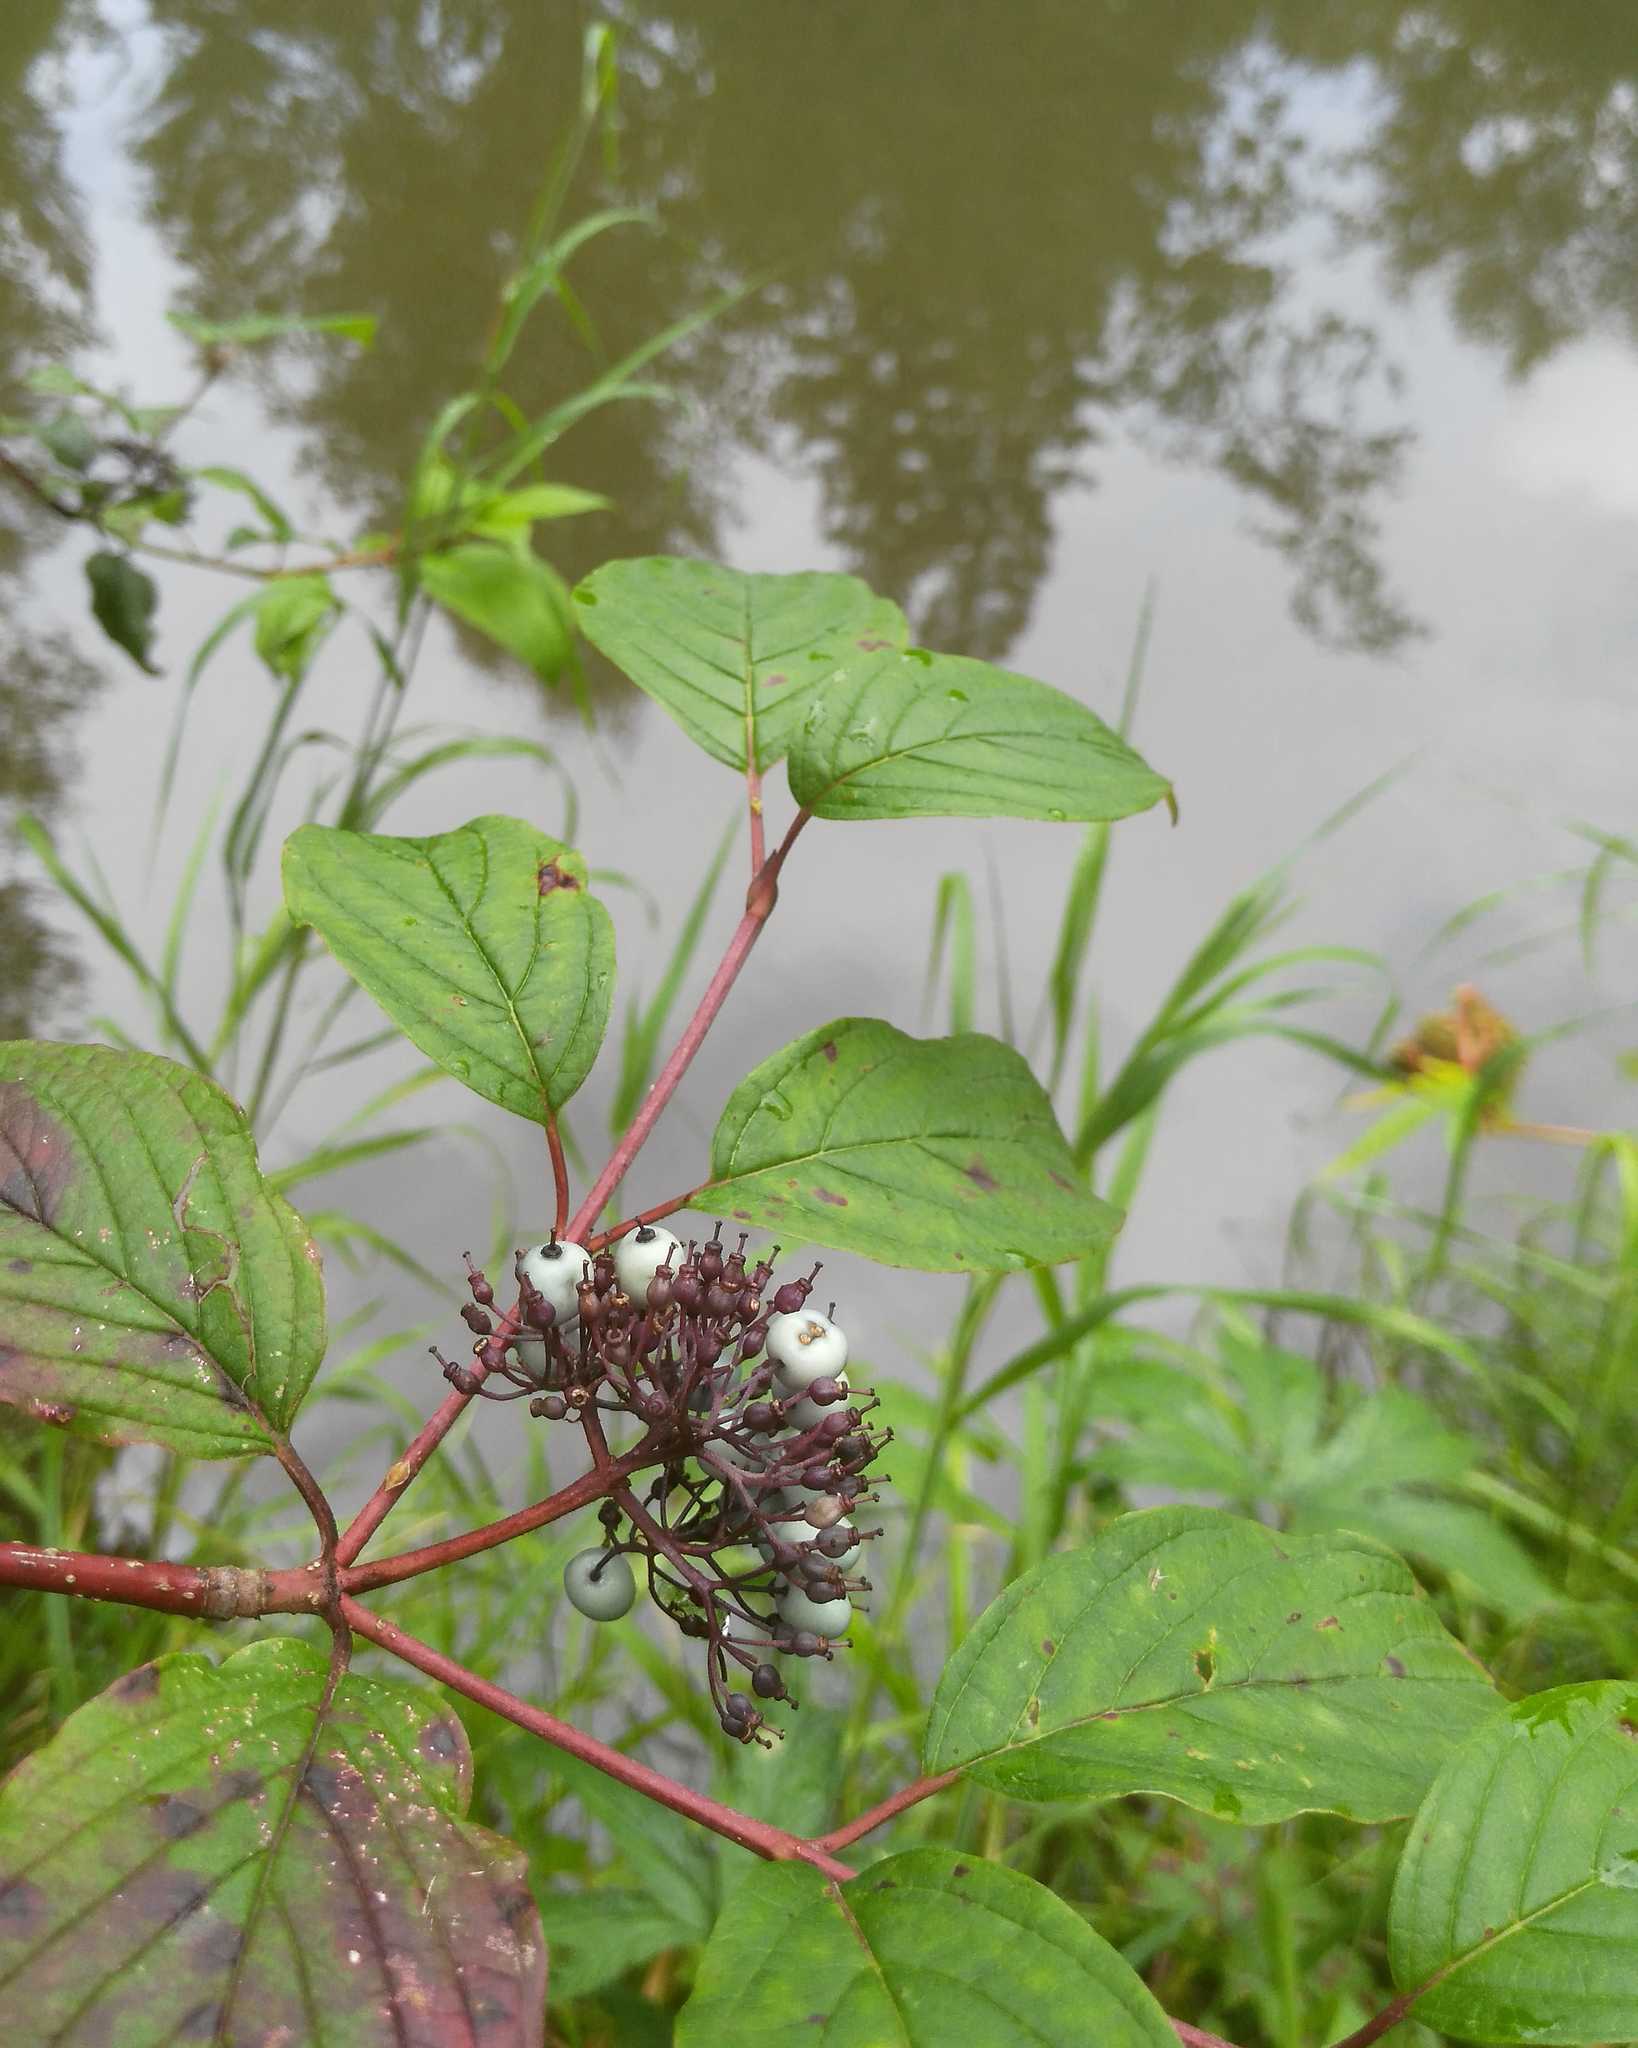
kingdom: Plantae
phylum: Tracheophyta
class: Magnoliopsida
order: Cornales
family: Cornaceae
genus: Cornus
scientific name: Cornus alba
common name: White dogwood
